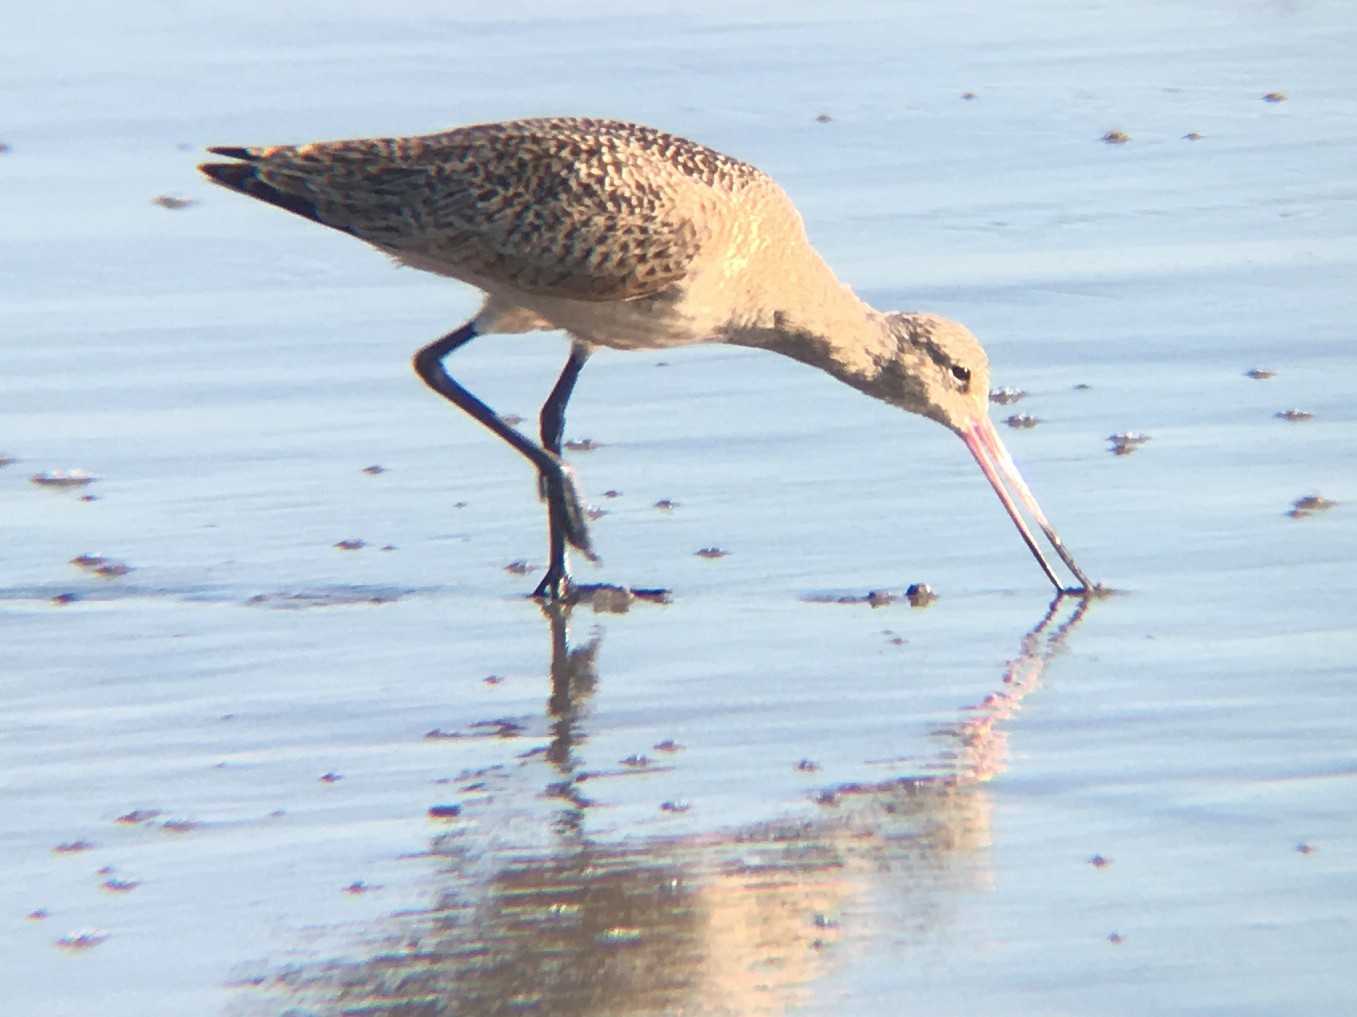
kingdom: Animalia
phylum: Chordata
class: Aves
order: Charadriiformes
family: Scolopacidae
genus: Limosa
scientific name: Limosa fedoa
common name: Marbled godwit
